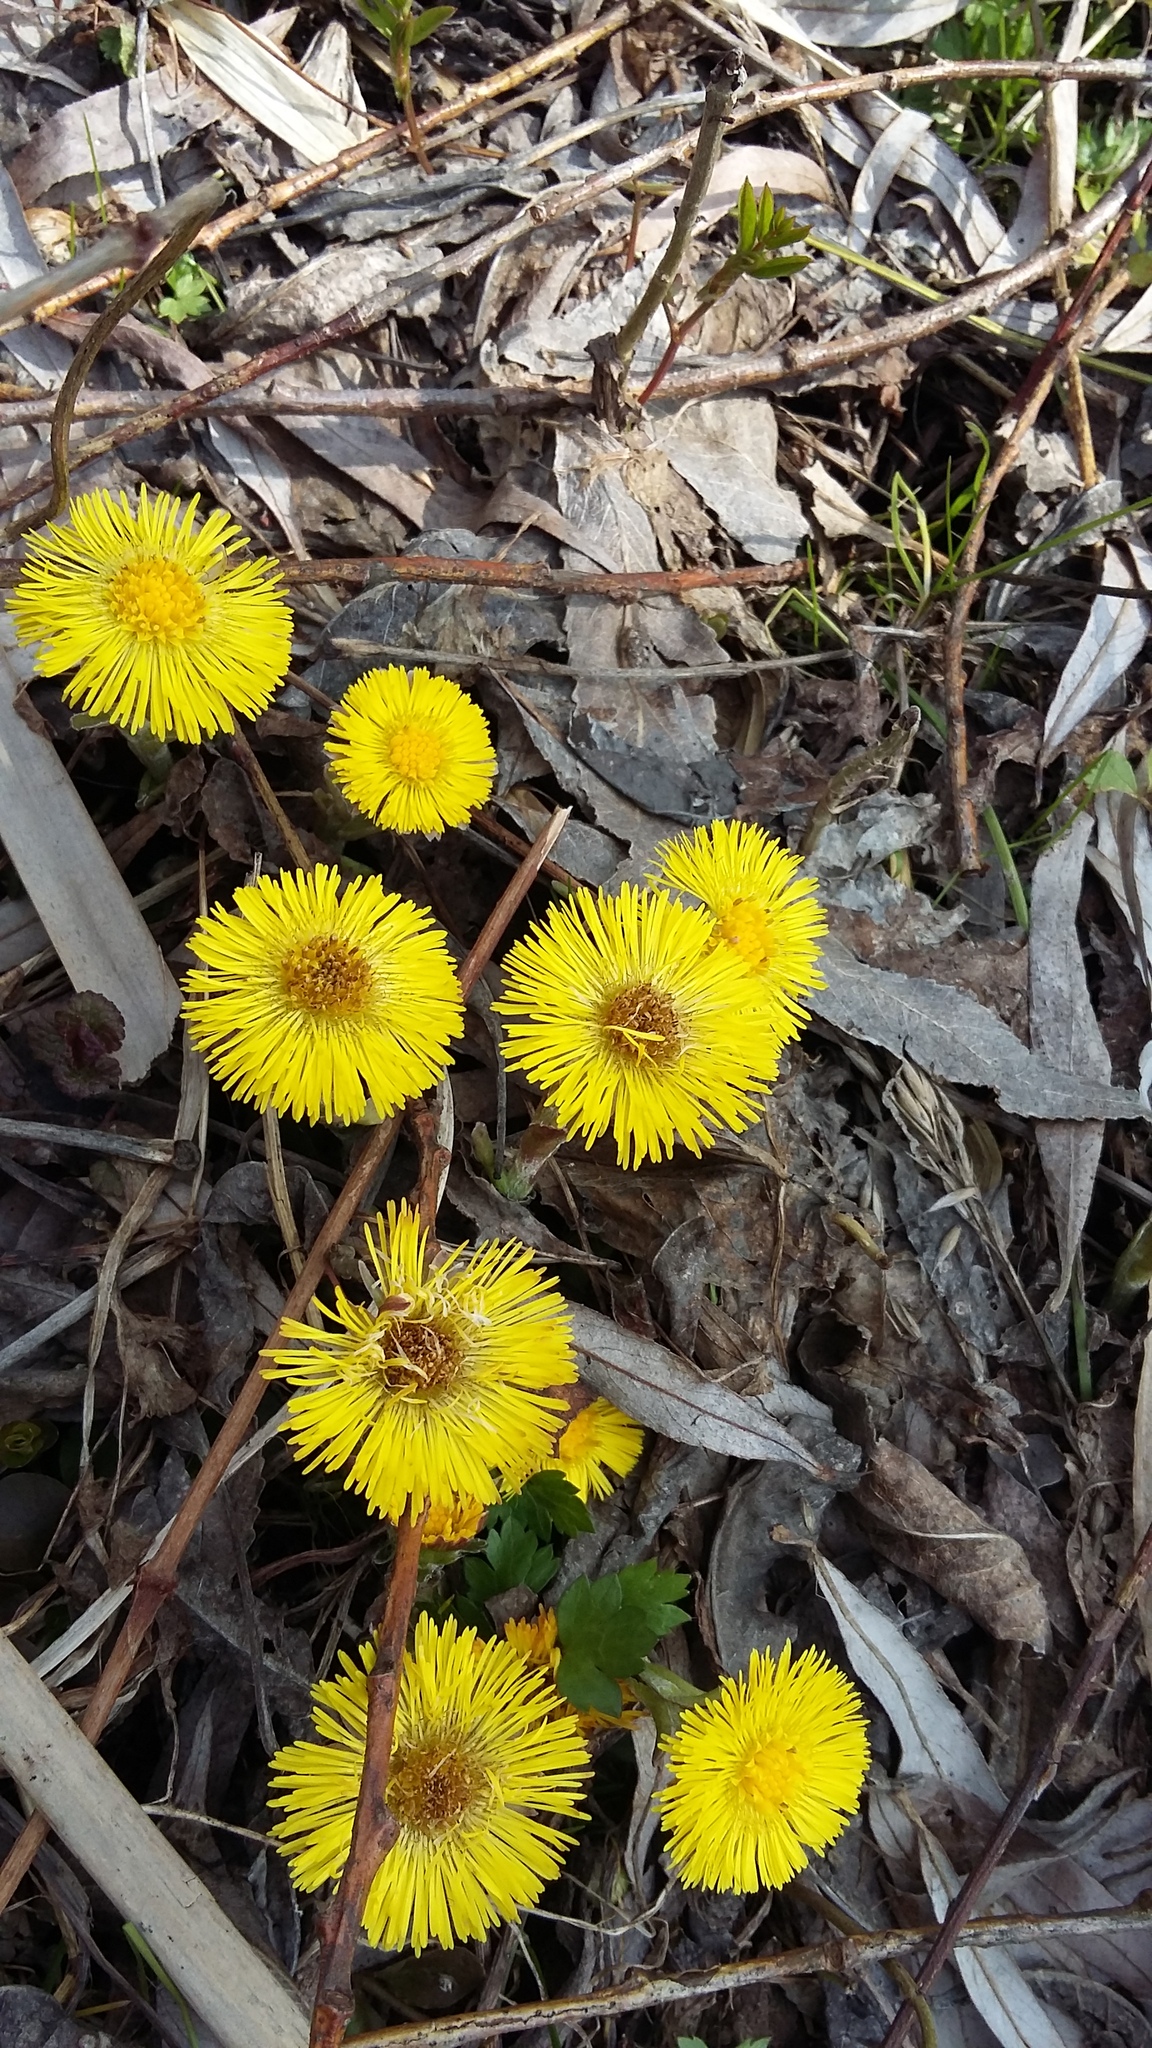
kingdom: Plantae
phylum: Tracheophyta
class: Magnoliopsida
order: Asterales
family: Asteraceae
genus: Tussilago
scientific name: Tussilago farfara
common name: Coltsfoot
